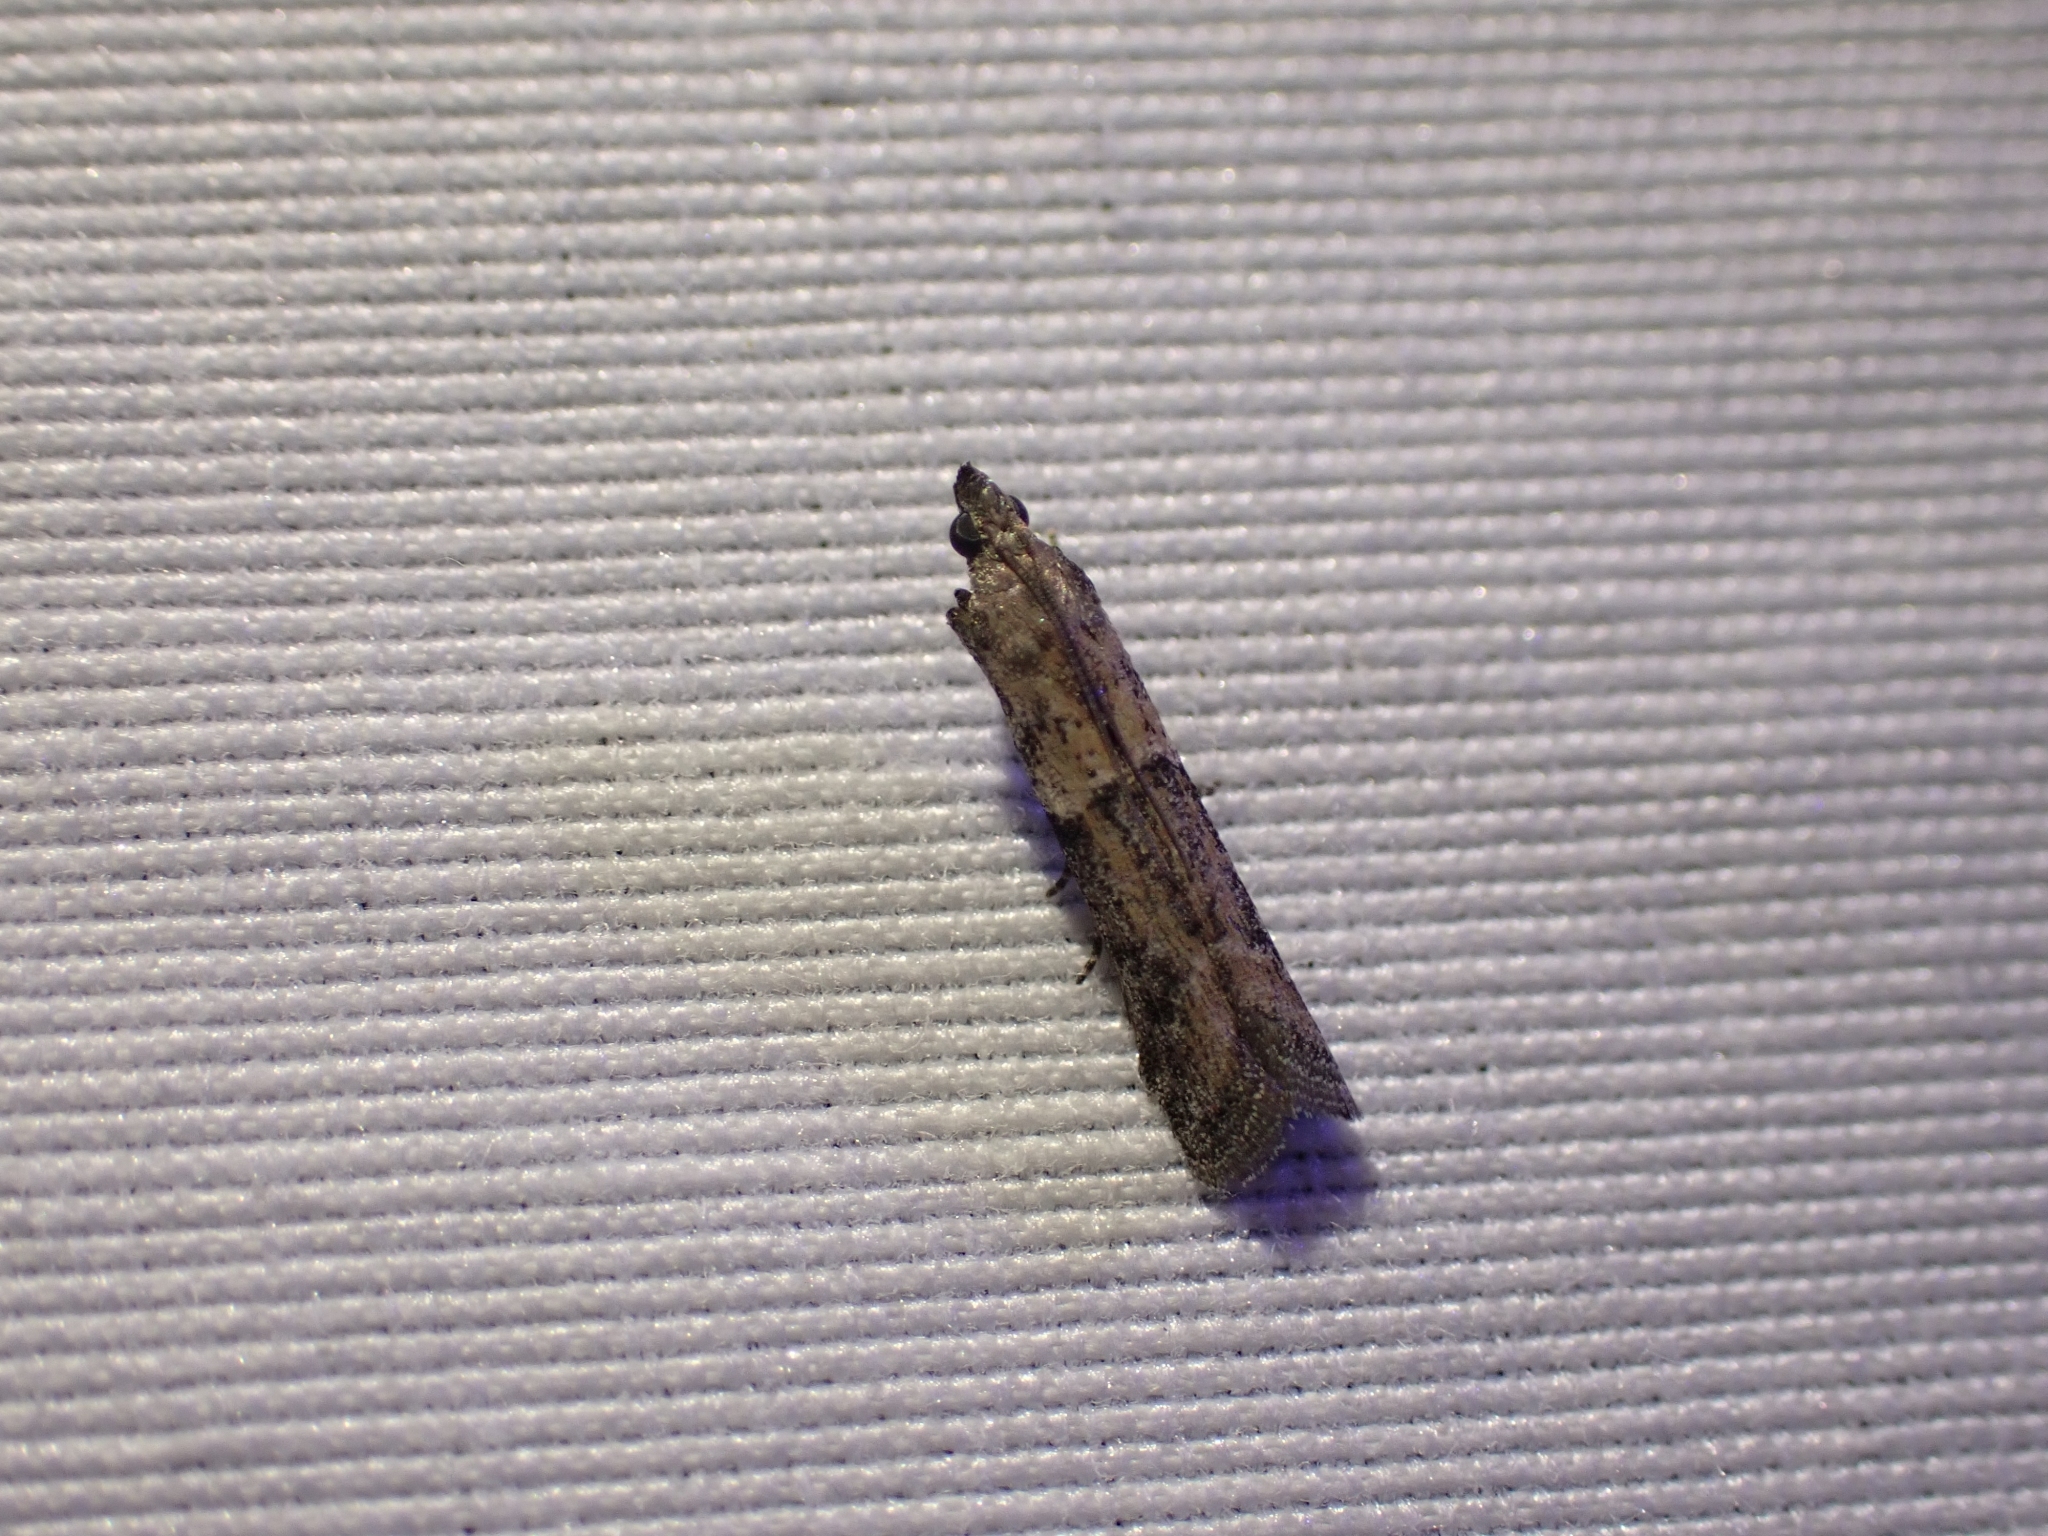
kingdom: Animalia
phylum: Arthropoda
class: Insecta
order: Lepidoptera
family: Pyralidae
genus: Ephestiodes
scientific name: Ephestiodes gilvescentella
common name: Moth
